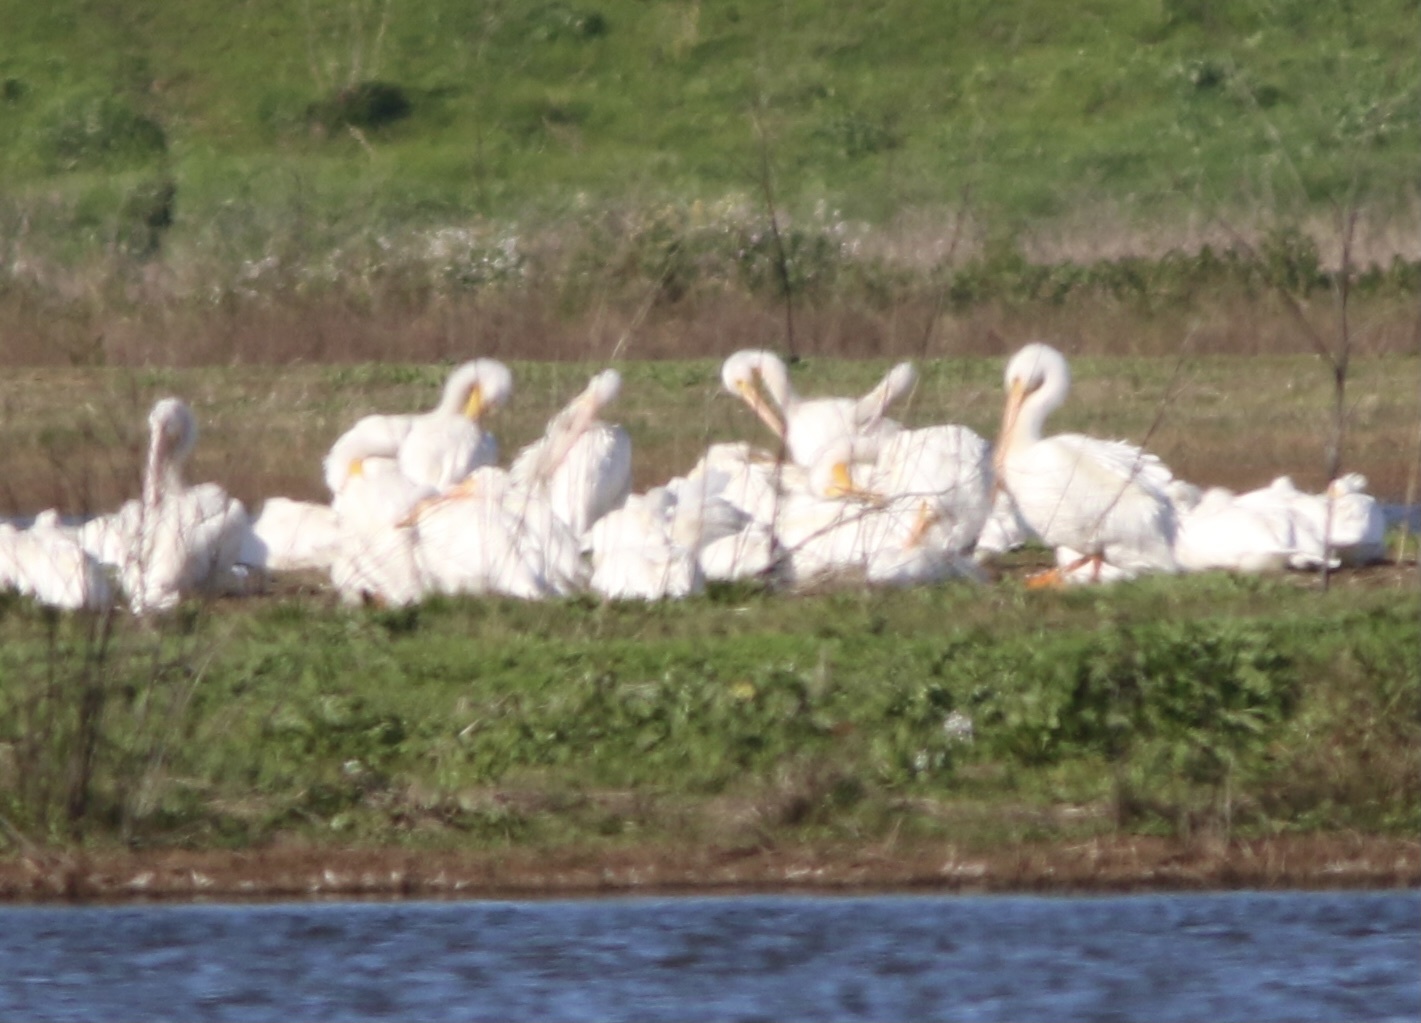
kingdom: Animalia
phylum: Chordata
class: Aves
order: Pelecaniformes
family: Pelecanidae
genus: Pelecanus
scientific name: Pelecanus erythrorhynchos
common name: American white pelican
